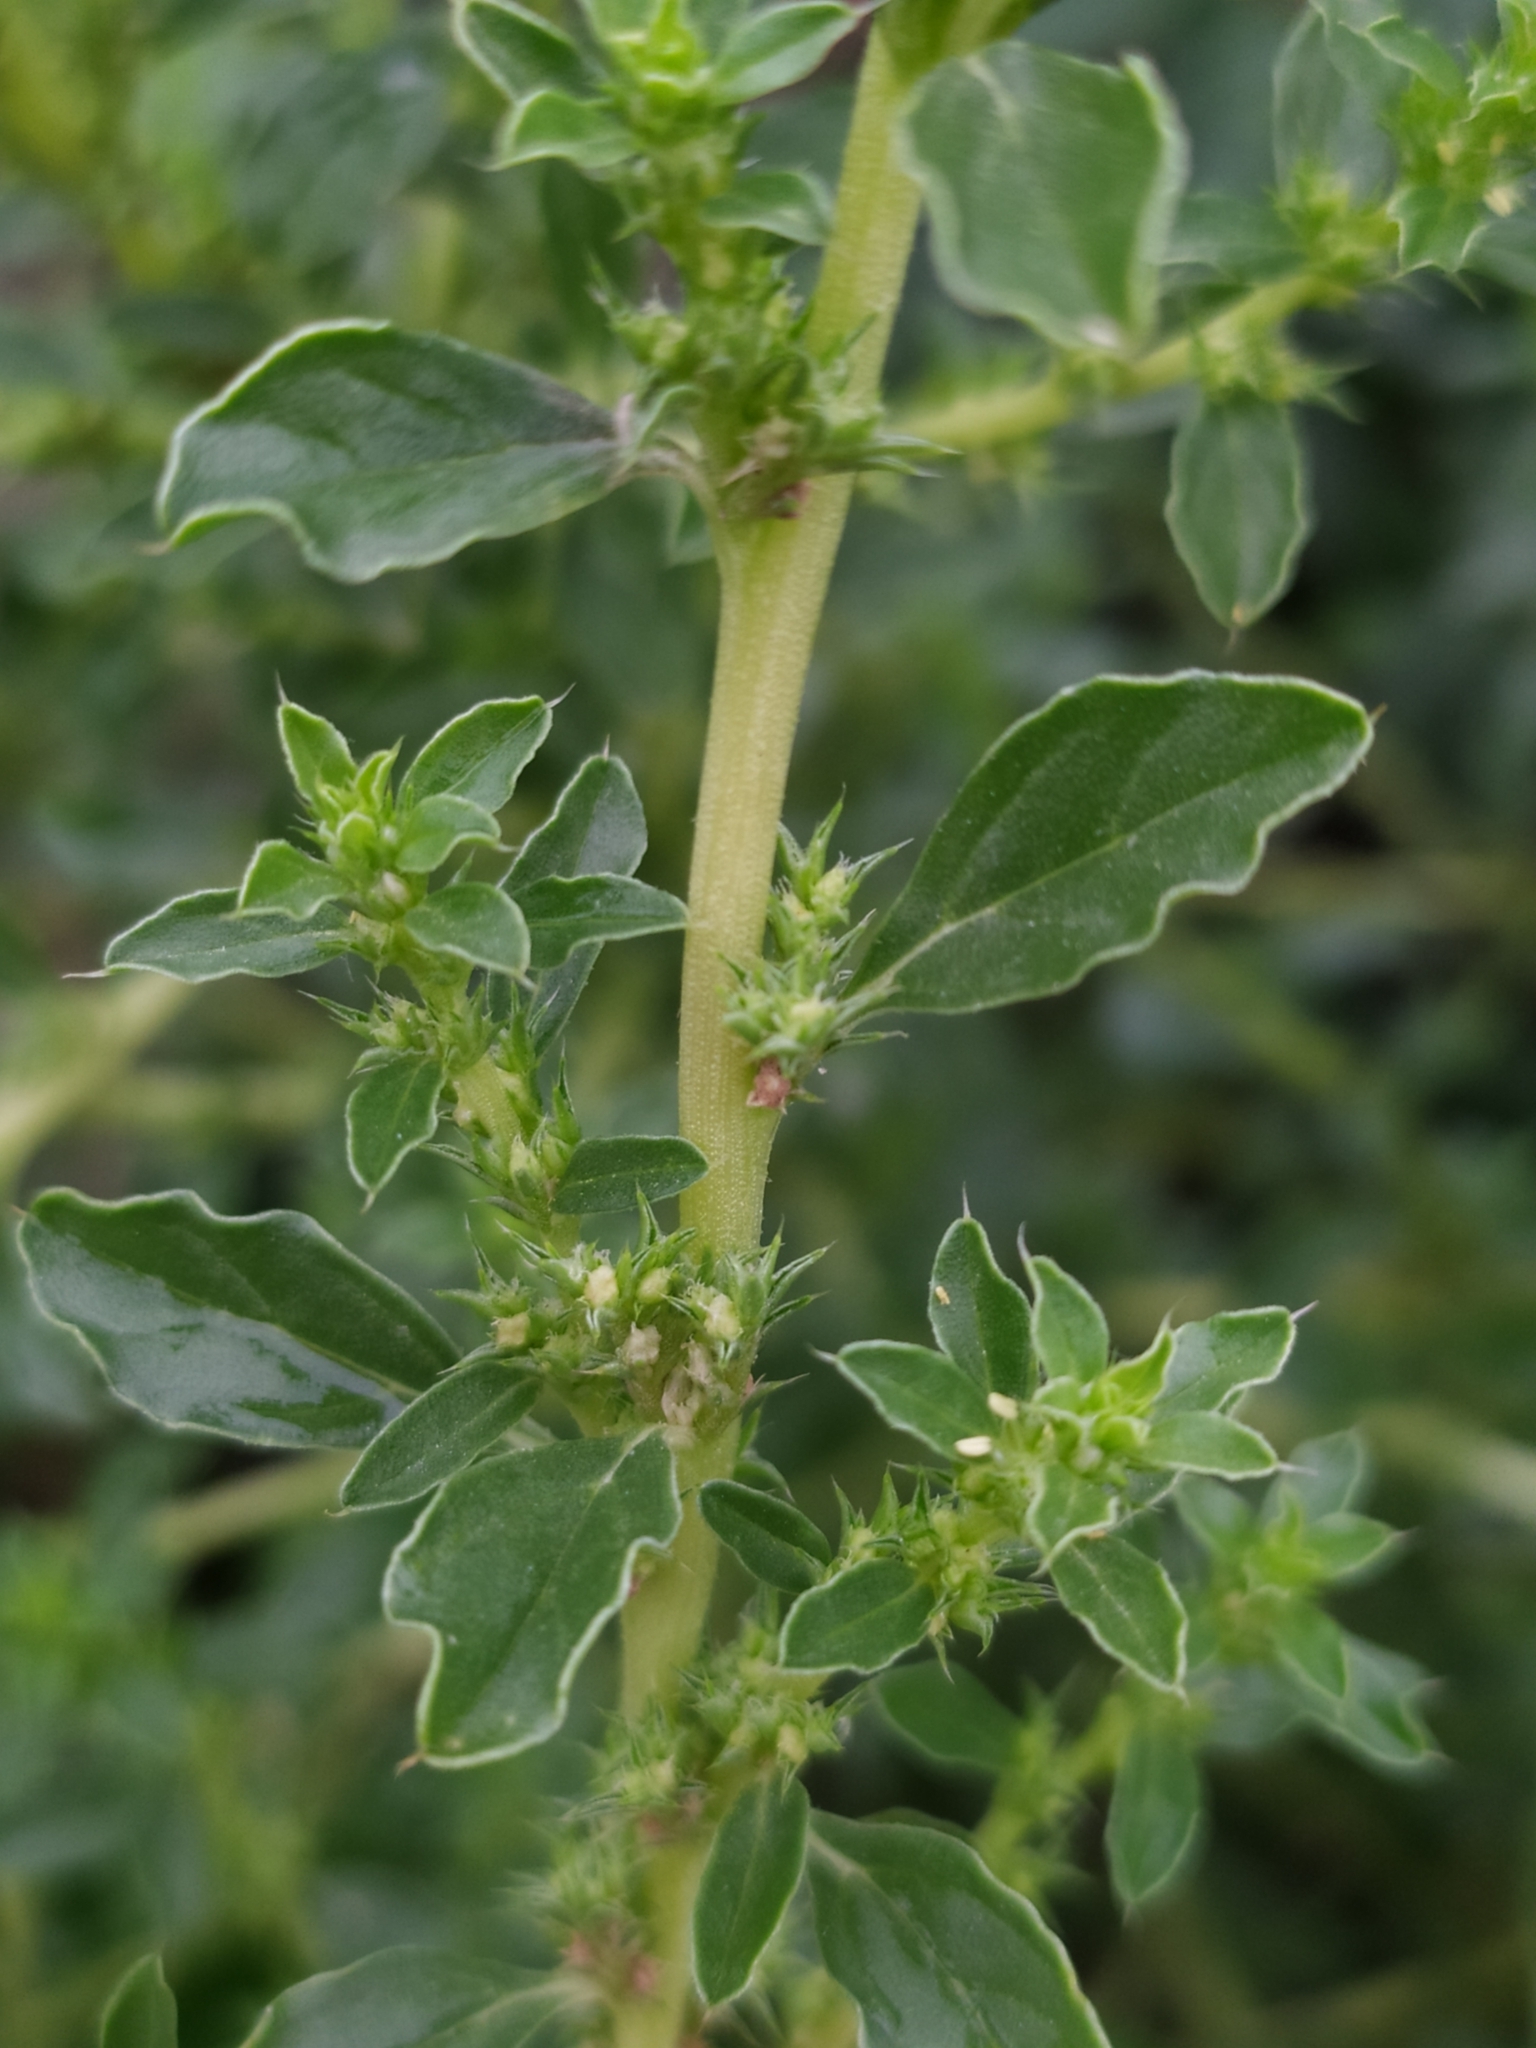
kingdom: Plantae
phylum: Tracheophyta
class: Magnoliopsida
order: Caryophyllales
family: Amaranthaceae
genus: Amaranthus
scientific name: Amaranthus albus
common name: White pigweed
